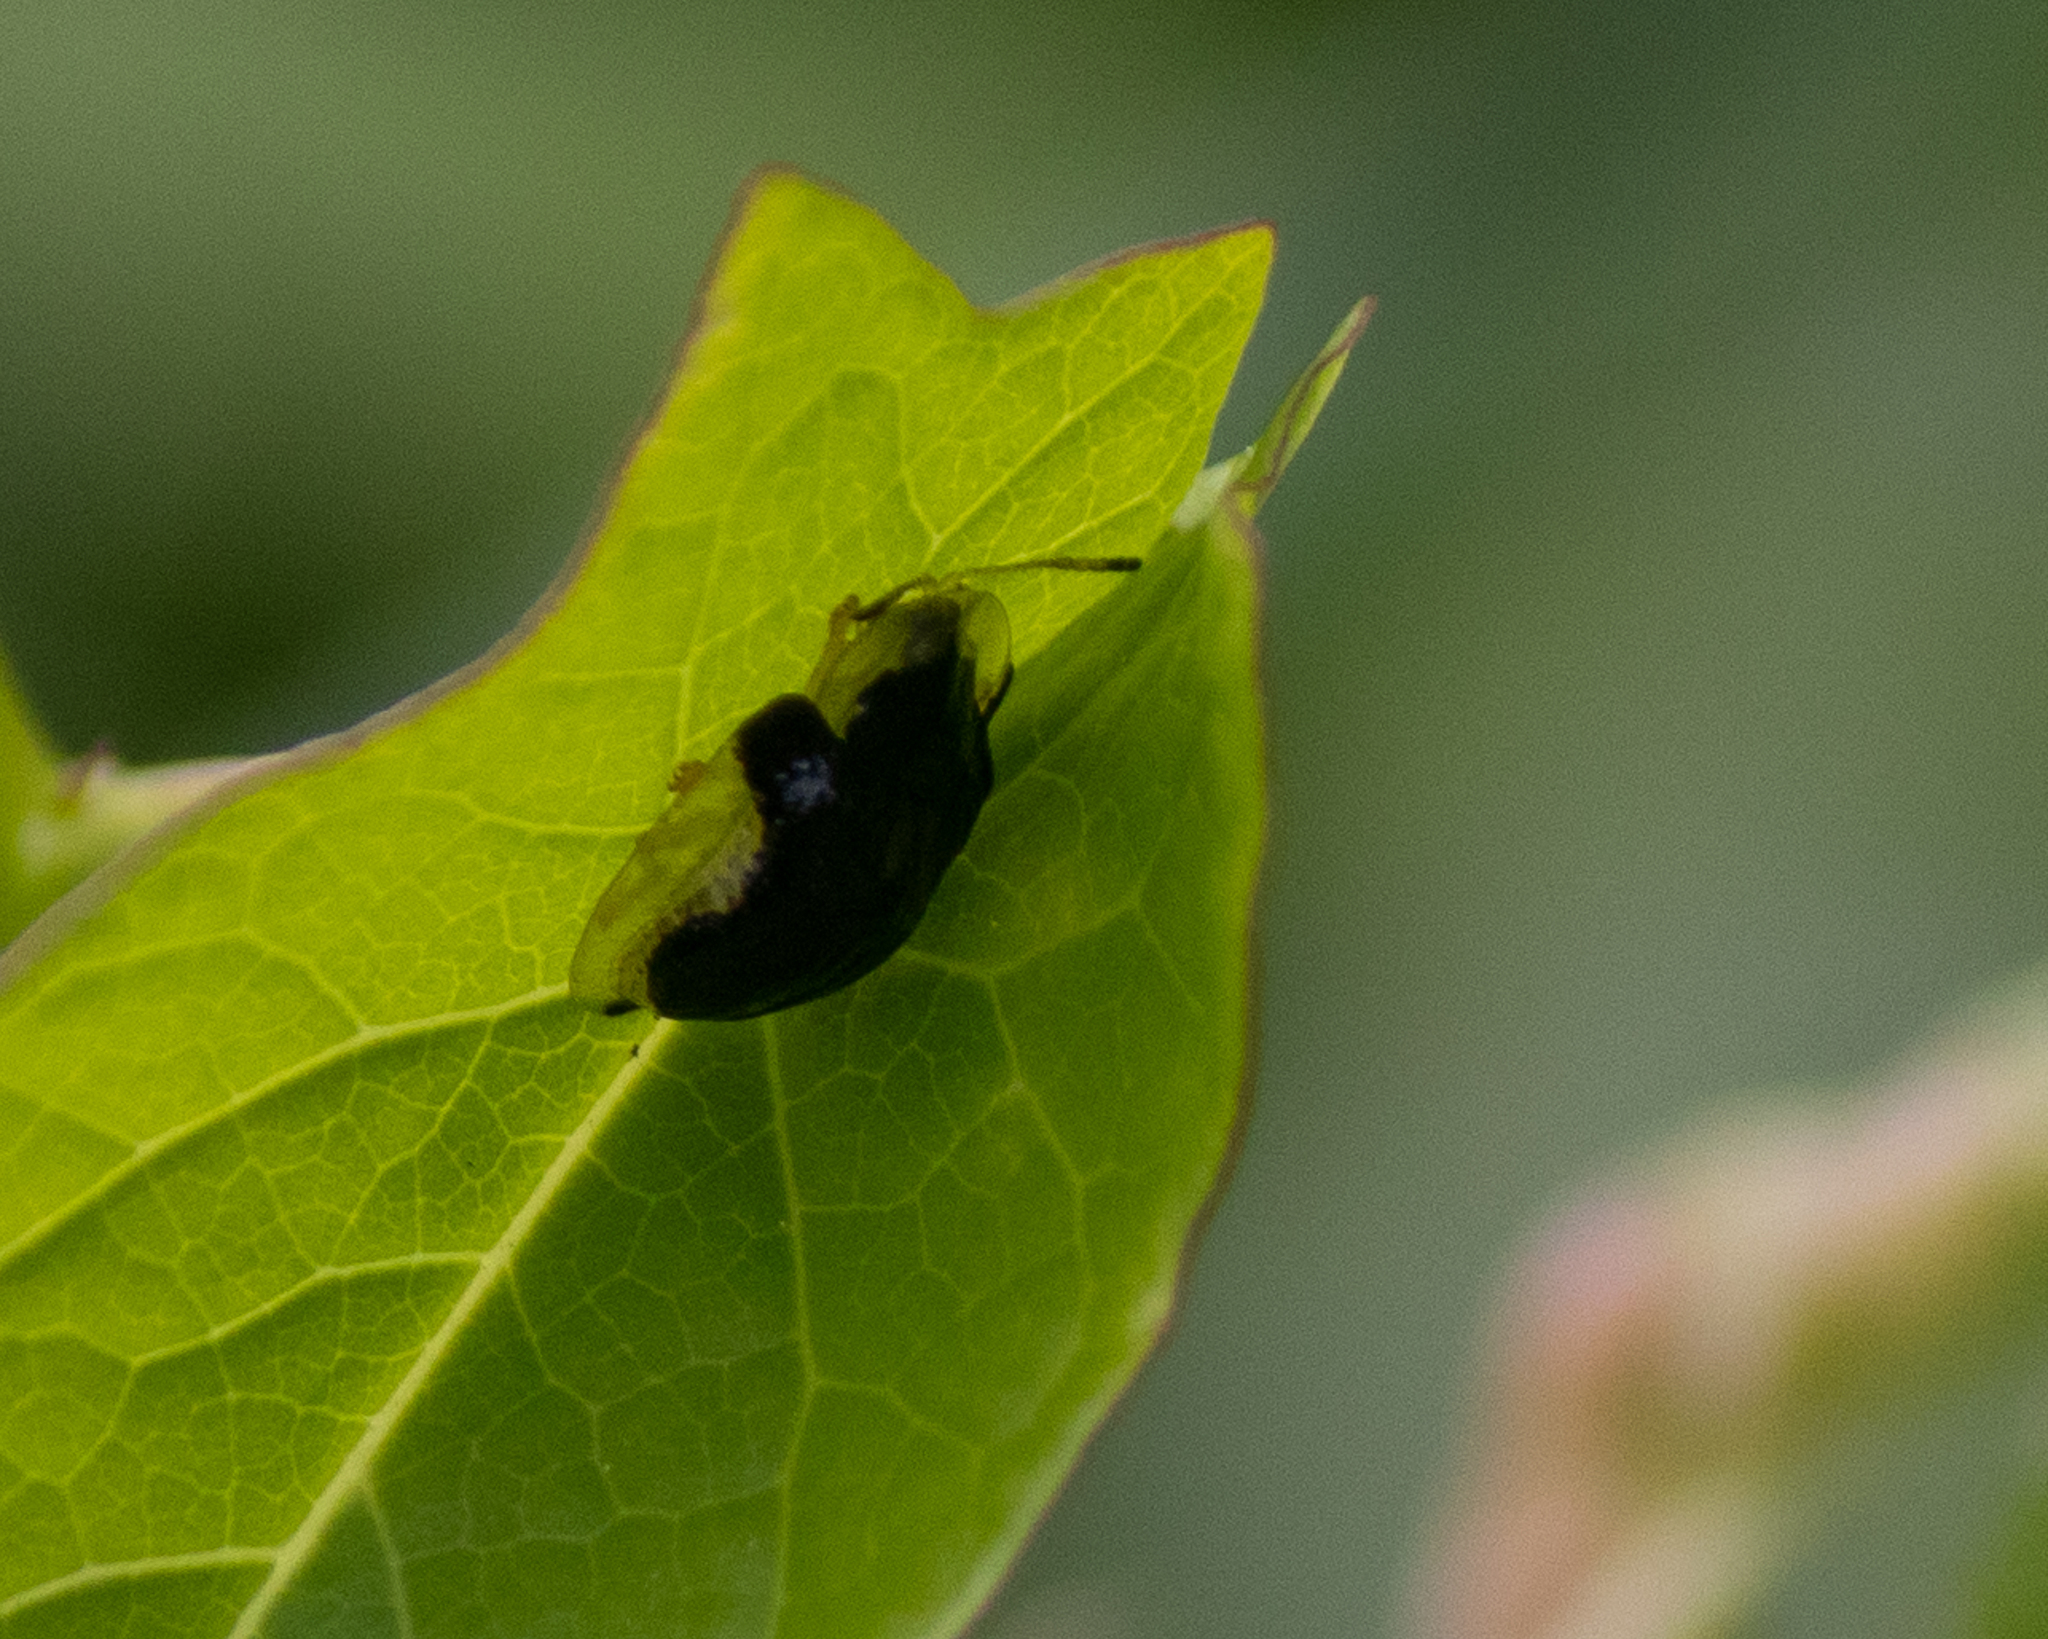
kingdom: Animalia
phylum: Arthropoda
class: Insecta
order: Coleoptera
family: Chrysomelidae
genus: Deloyala
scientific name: Deloyala guttata
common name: Mottled tortoise beetle
